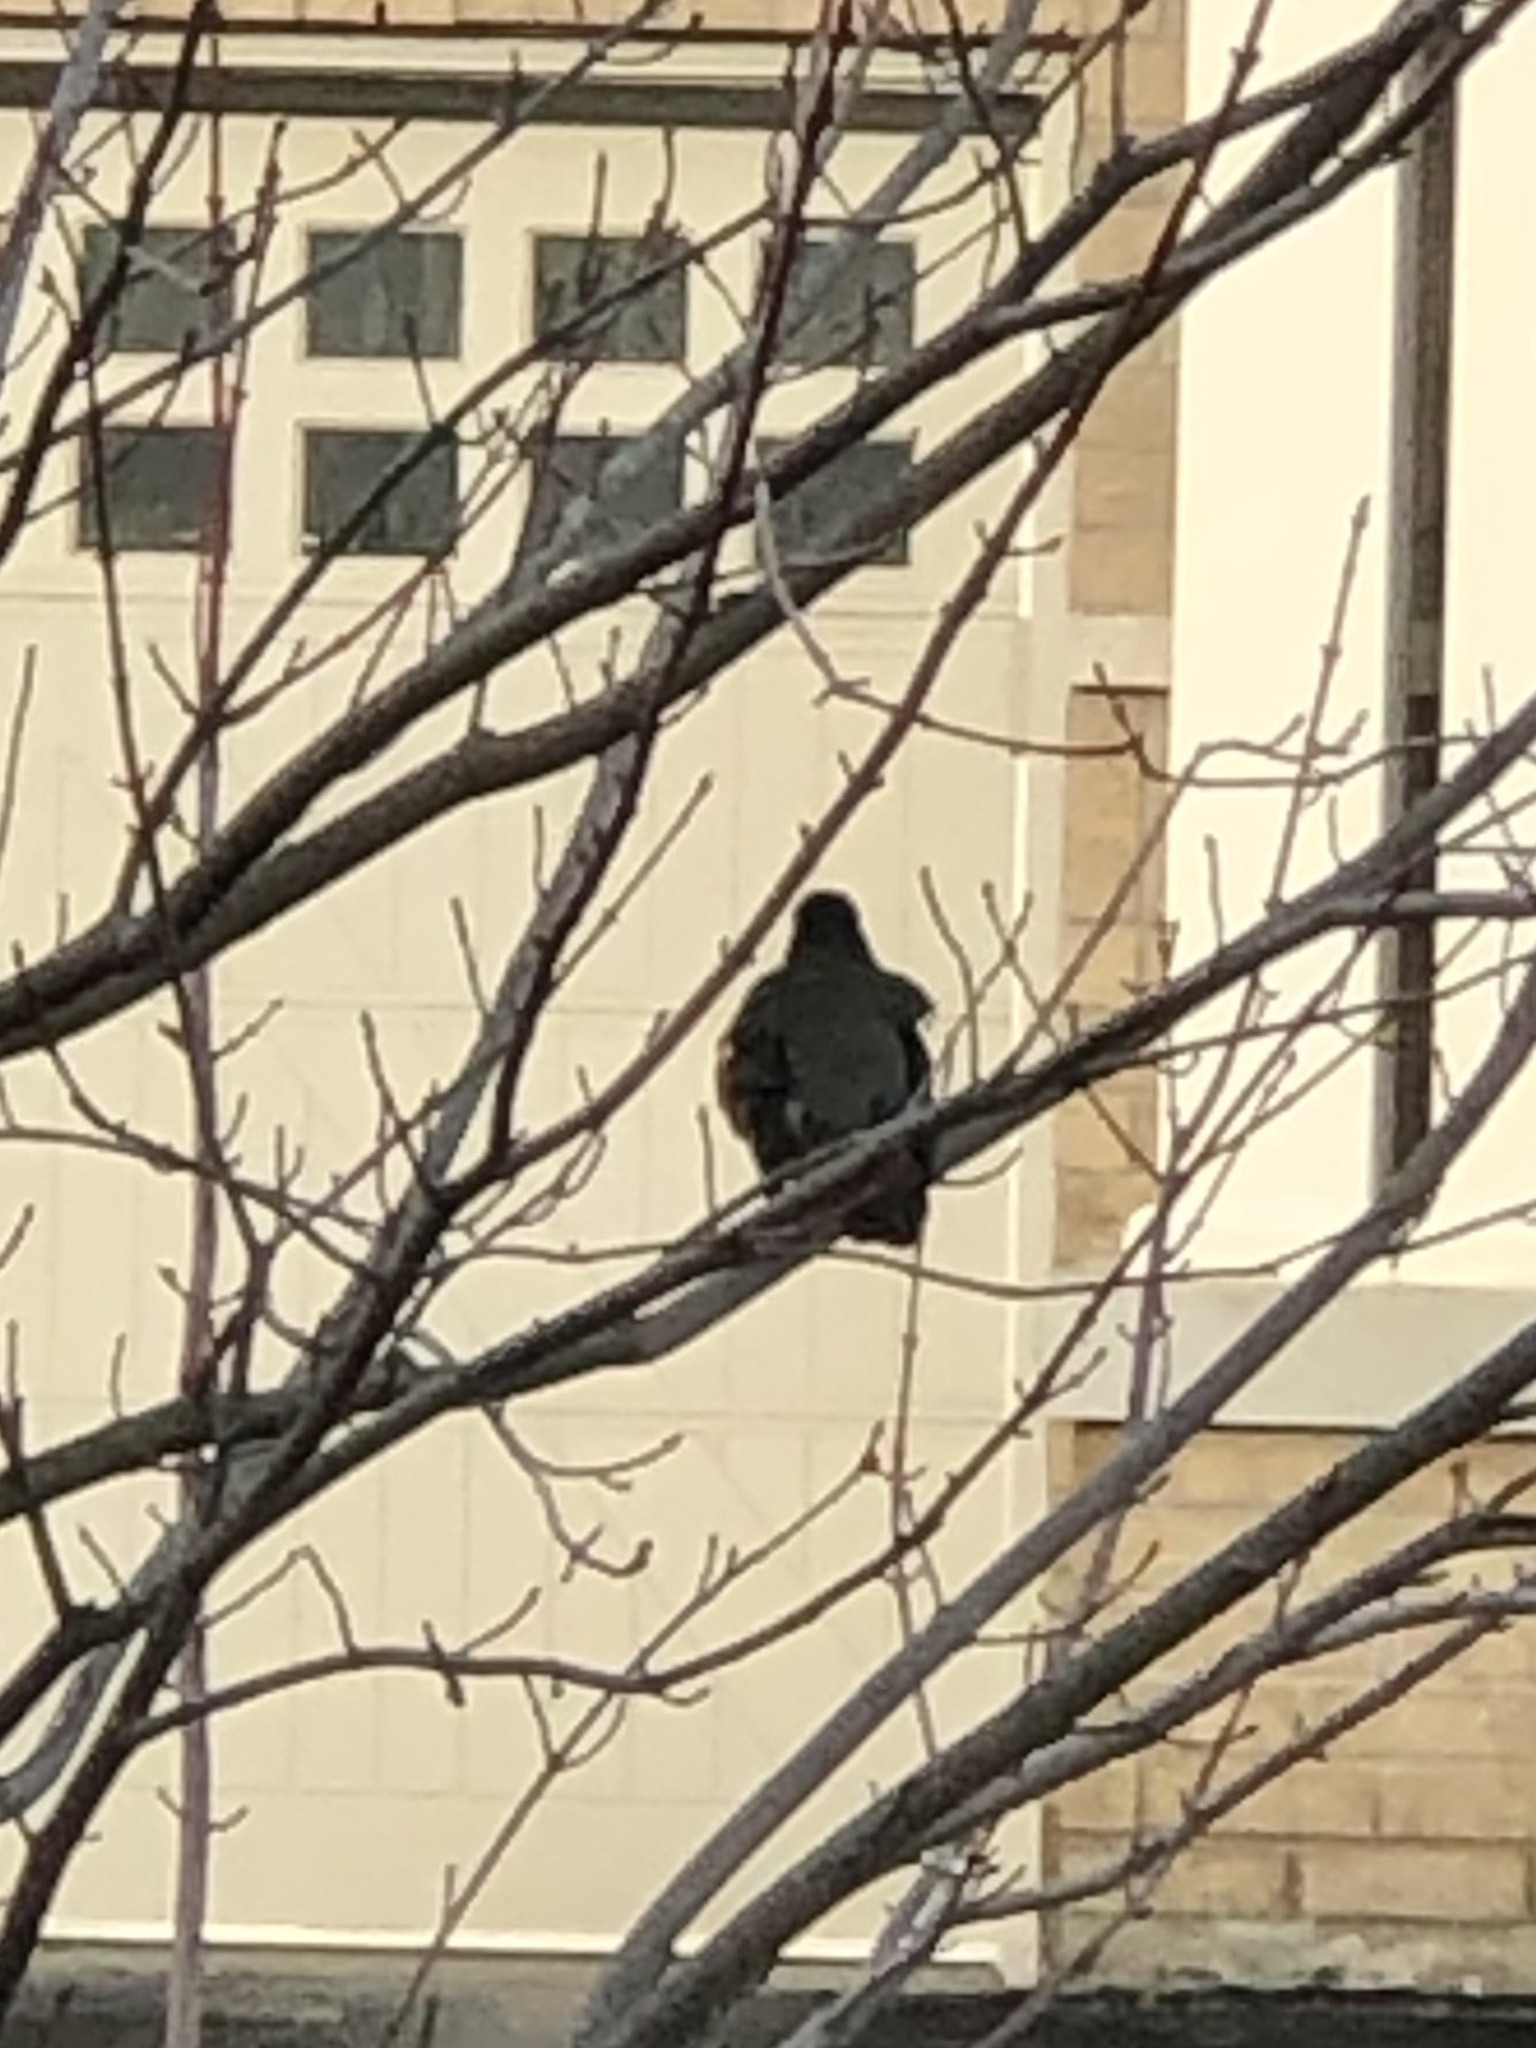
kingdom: Animalia
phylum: Chordata
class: Aves
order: Passeriformes
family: Turdidae
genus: Turdus
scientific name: Turdus migratorius
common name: American robin
